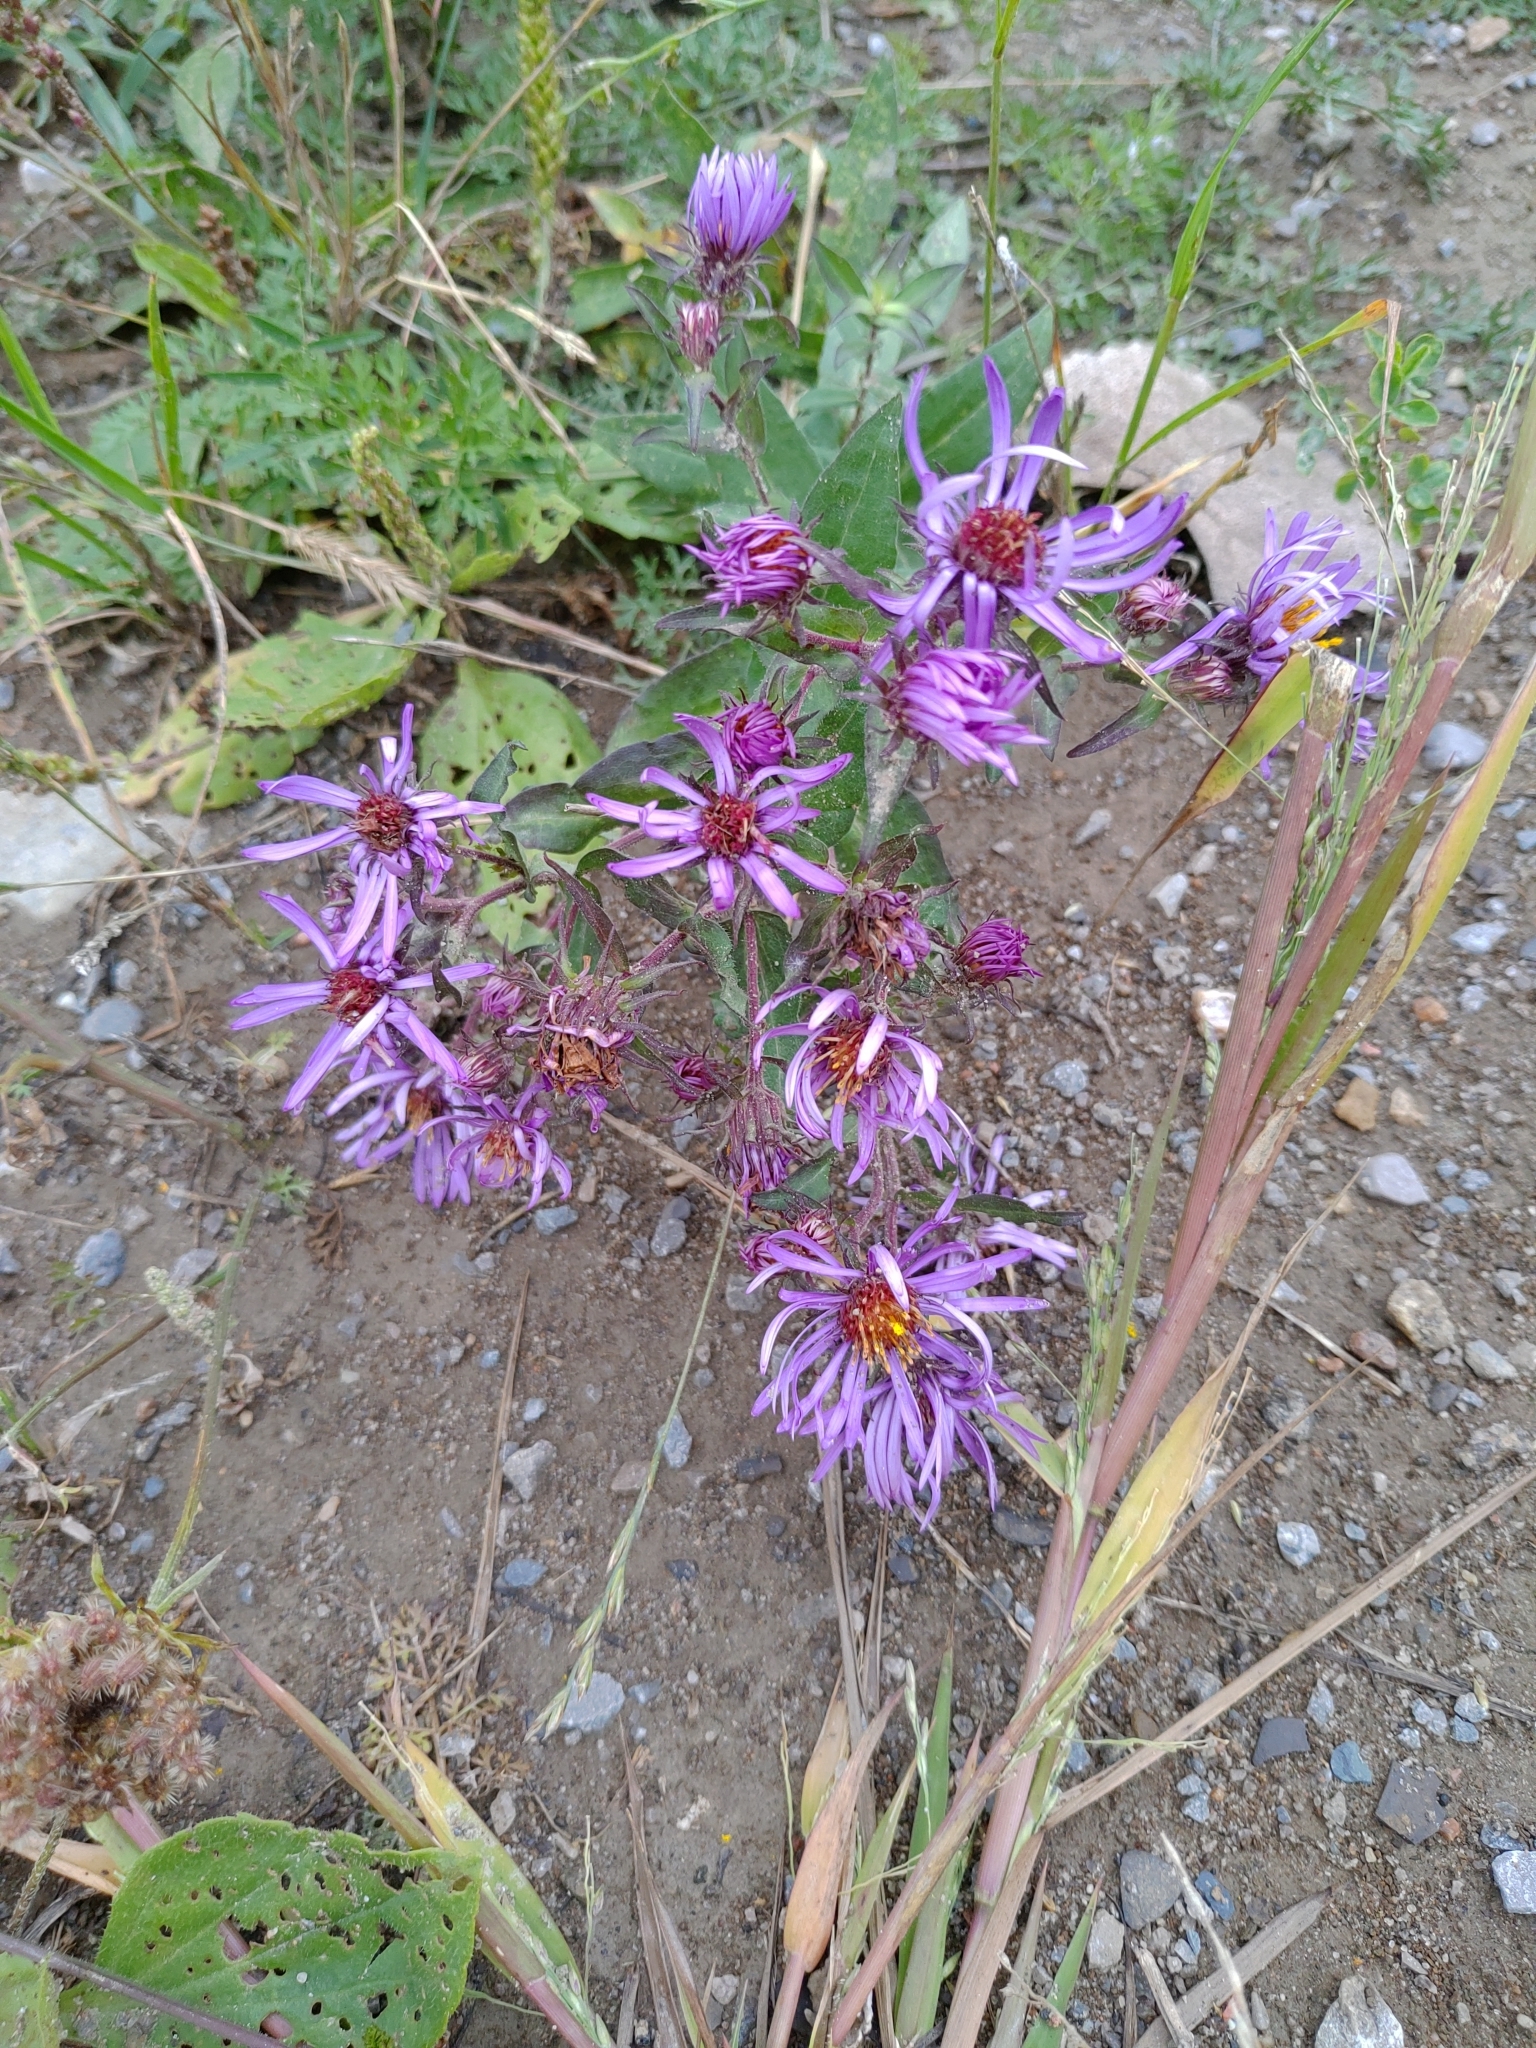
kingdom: Plantae
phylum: Tracheophyta
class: Magnoliopsida
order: Asterales
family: Asteraceae
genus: Symphyotrichum
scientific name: Symphyotrichum novae-angliae
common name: Michaelmas daisy
